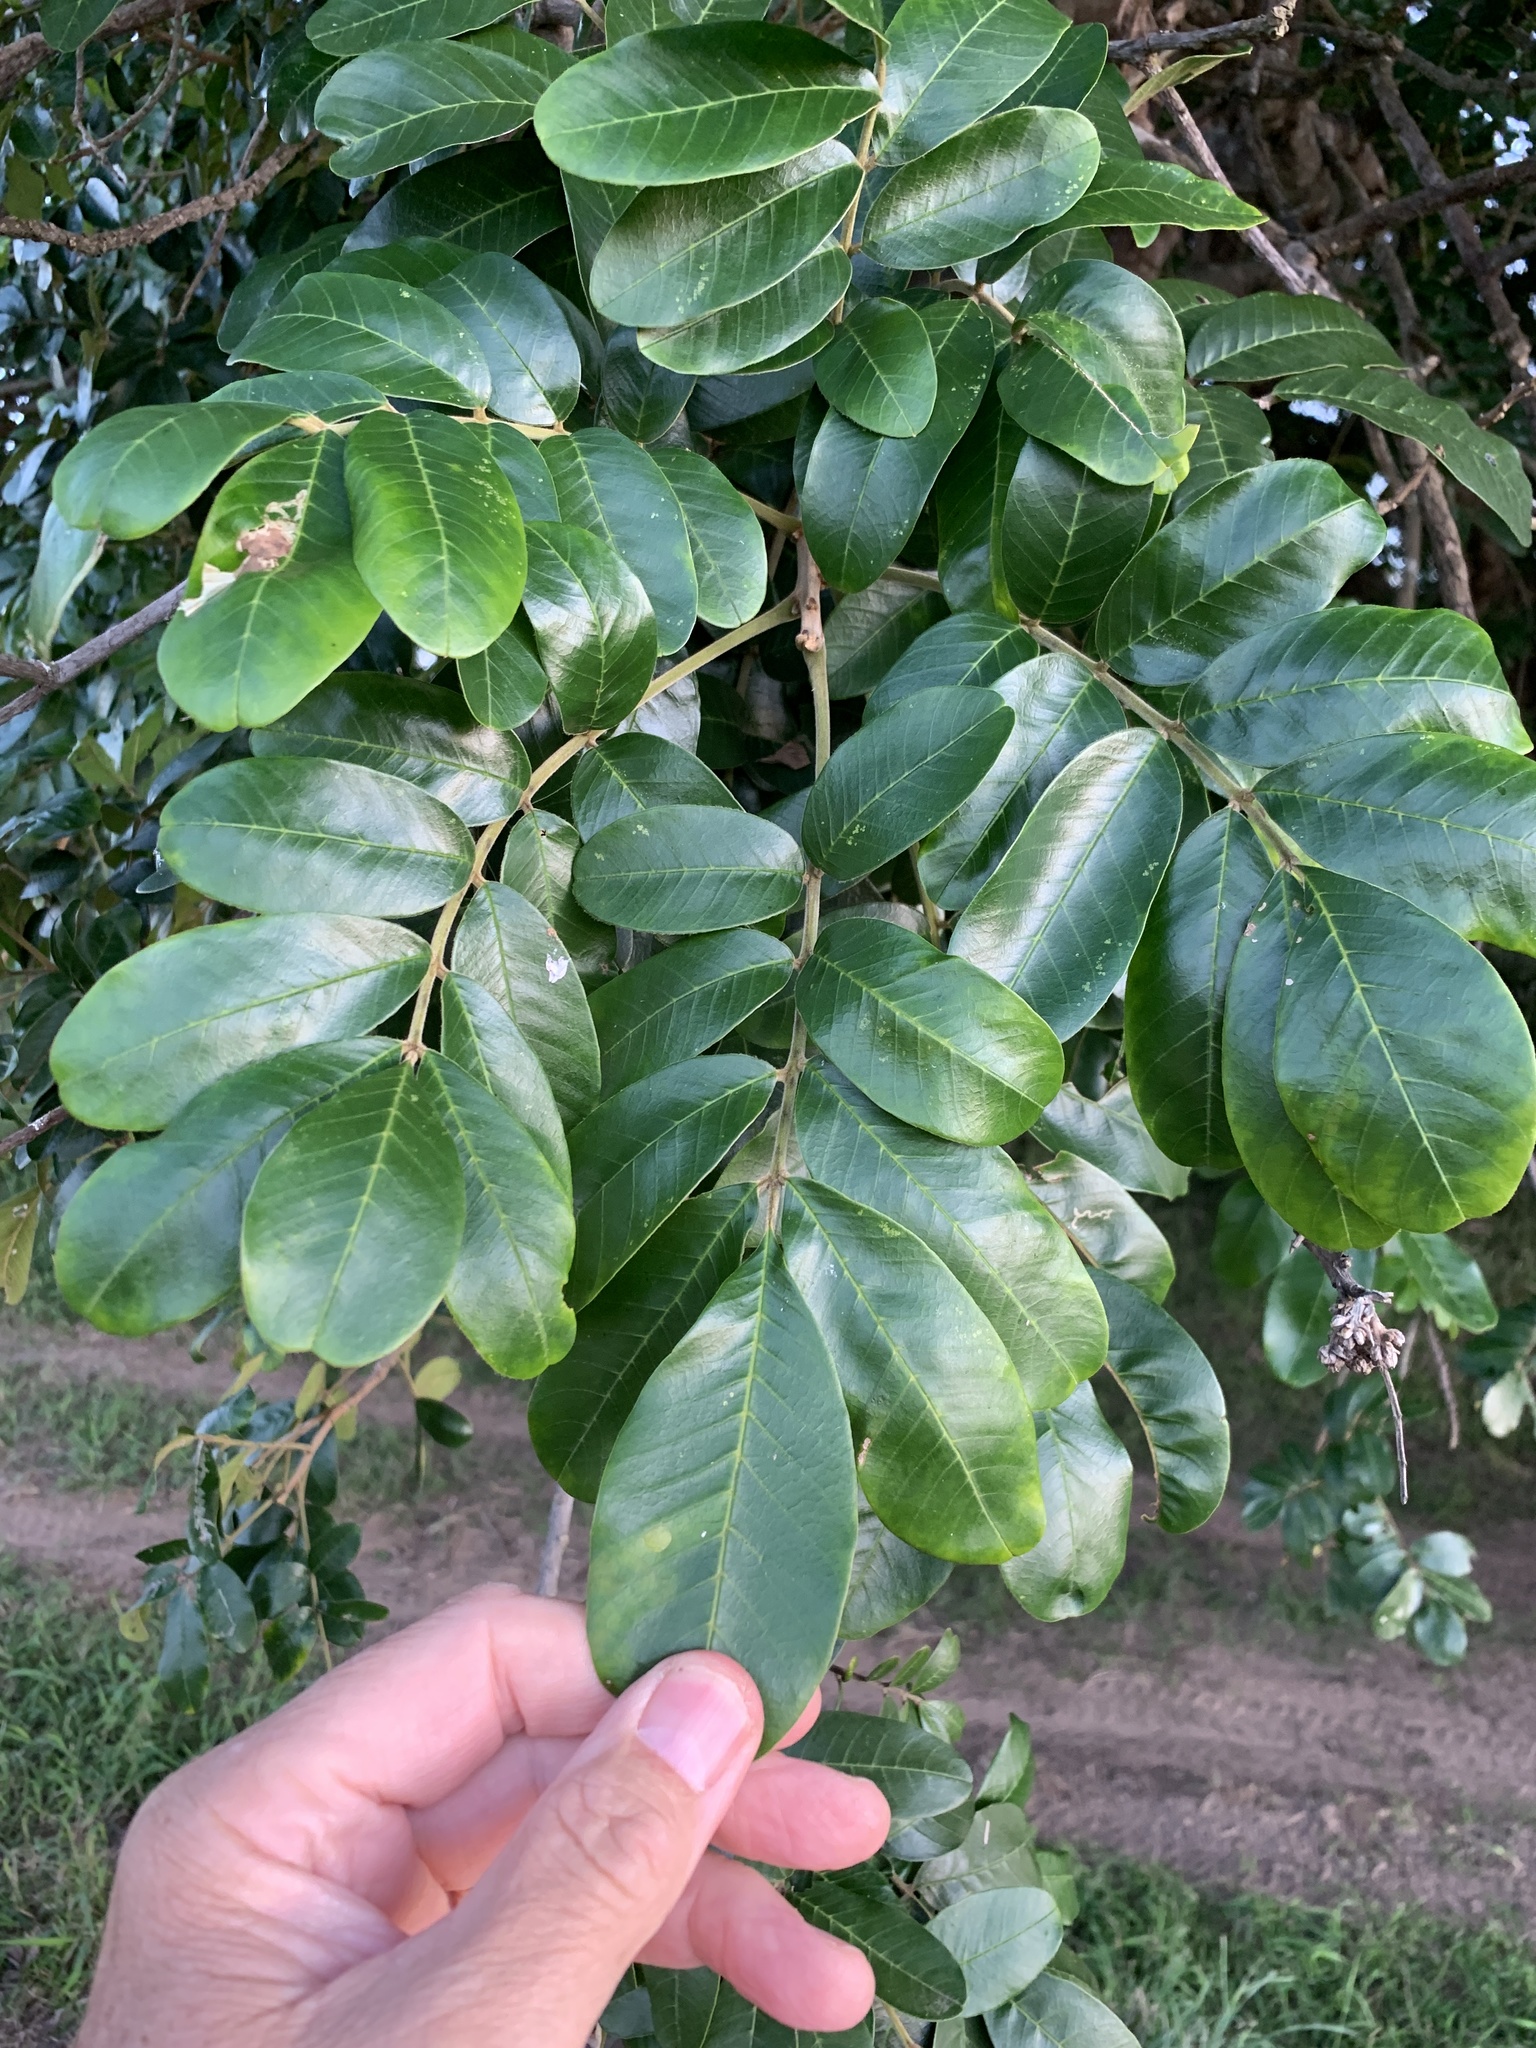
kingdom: Plantae
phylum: Tracheophyta
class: Magnoliopsida
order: Sapindales
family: Meliaceae
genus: Trichilia
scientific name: Trichilia emetica
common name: Christmas-bells
